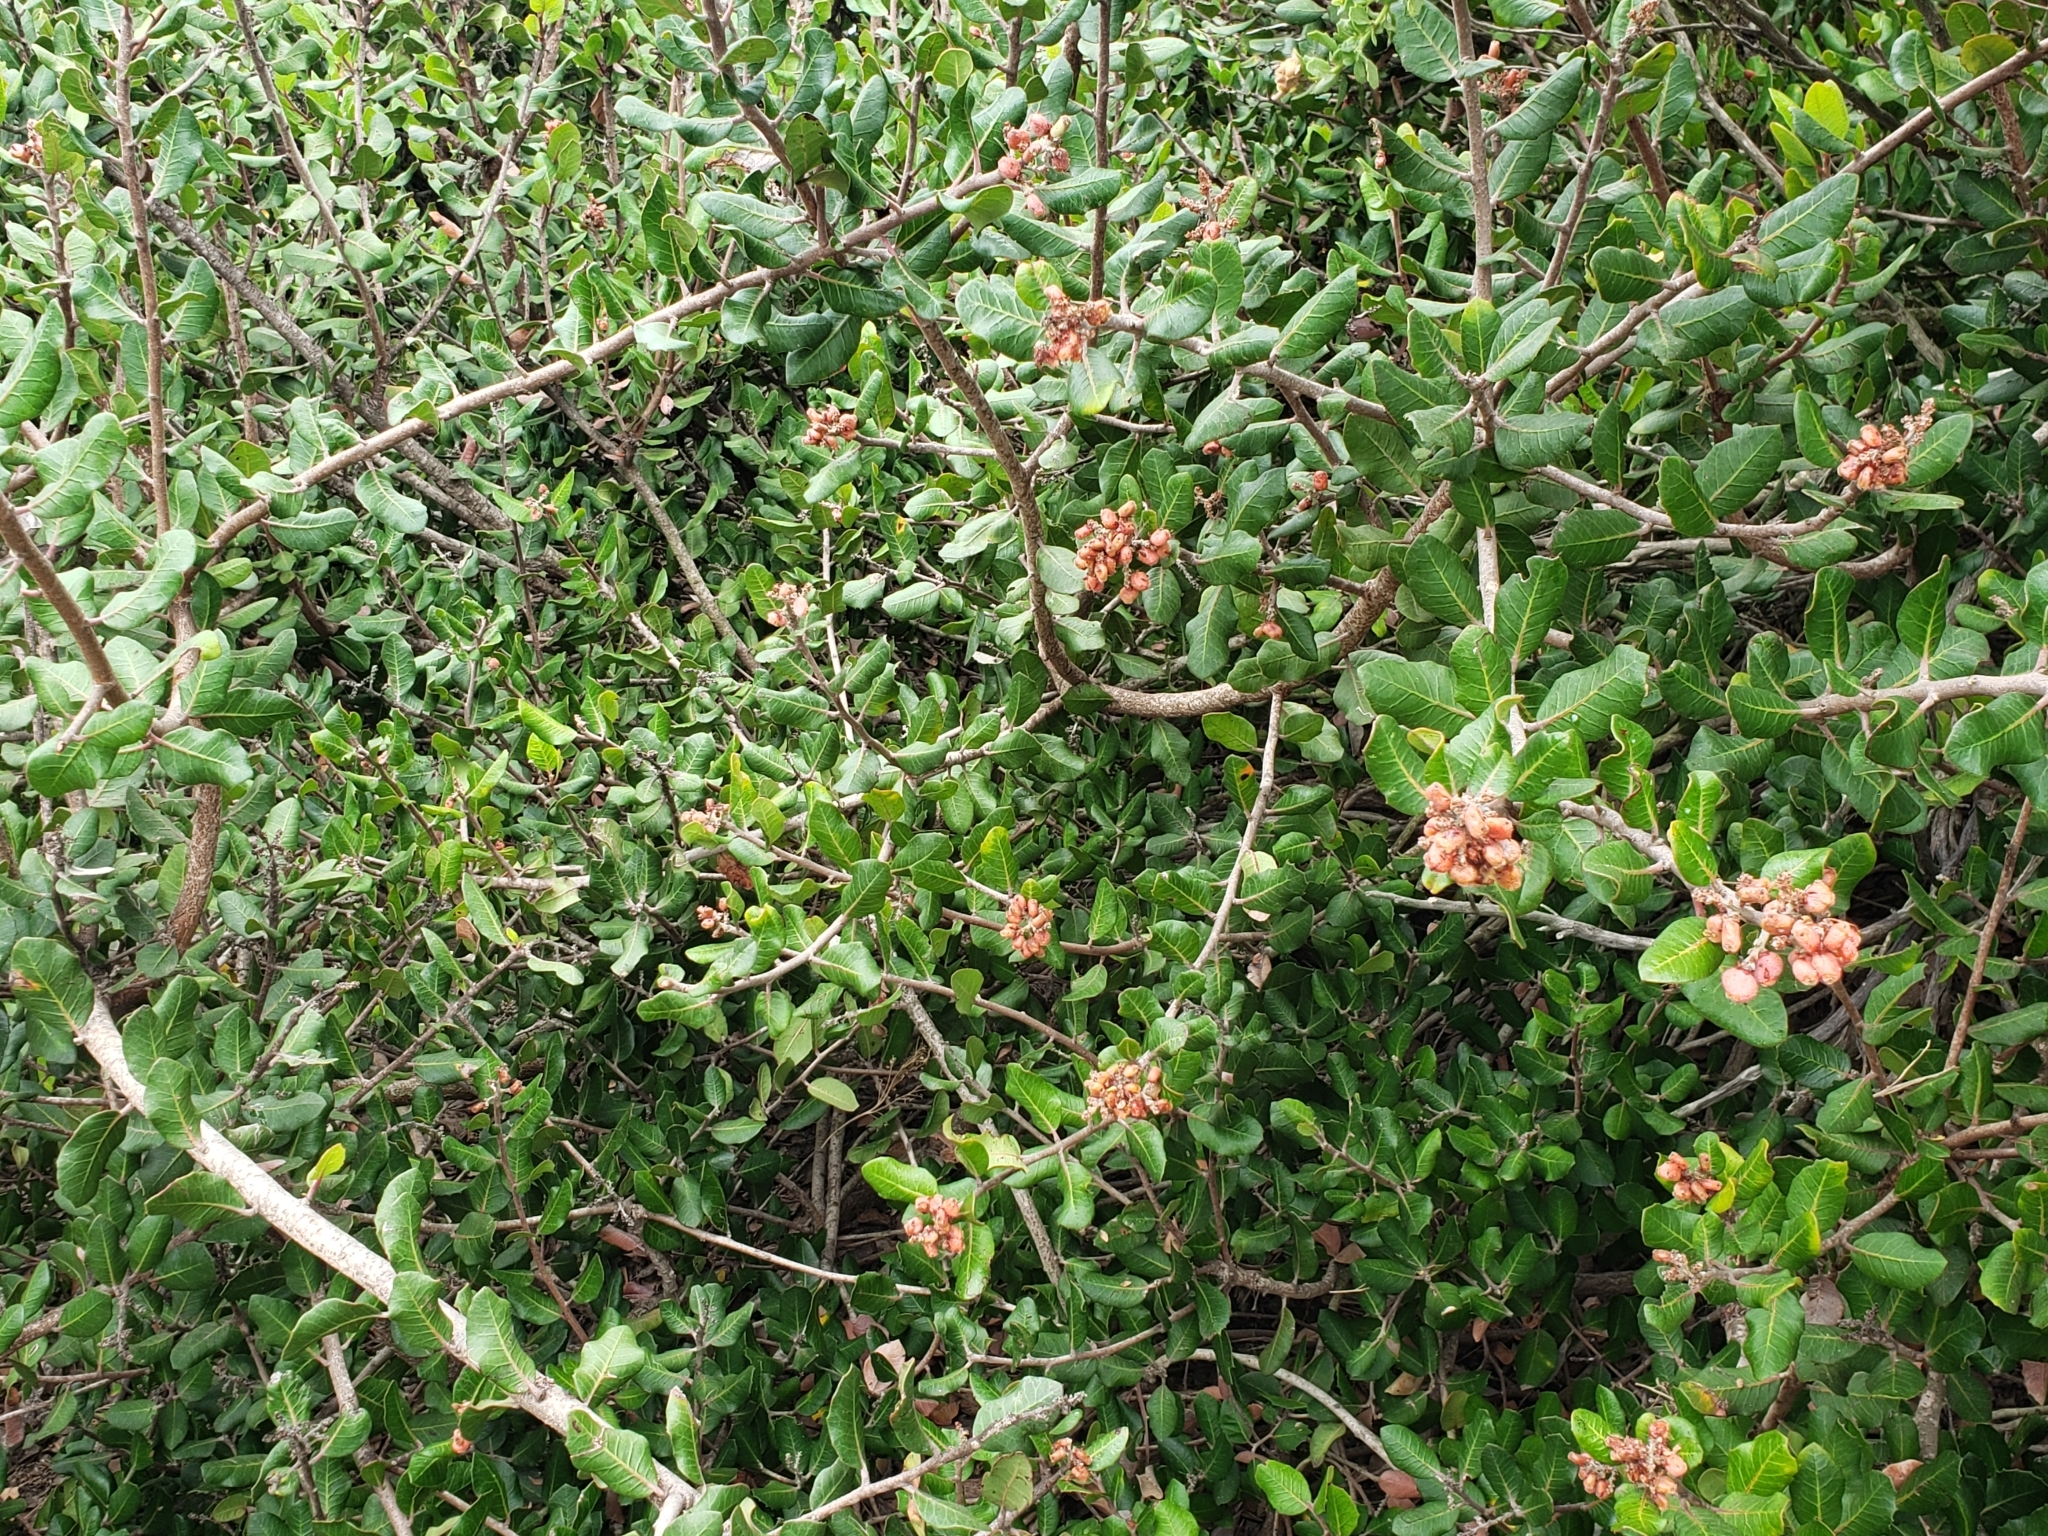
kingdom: Plantae
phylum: Tracheophyta
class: Magnoliopsida
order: Sapindales
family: Anacardiaceae
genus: Rhus
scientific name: Rhus integrifolia
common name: Lemonade sumac
